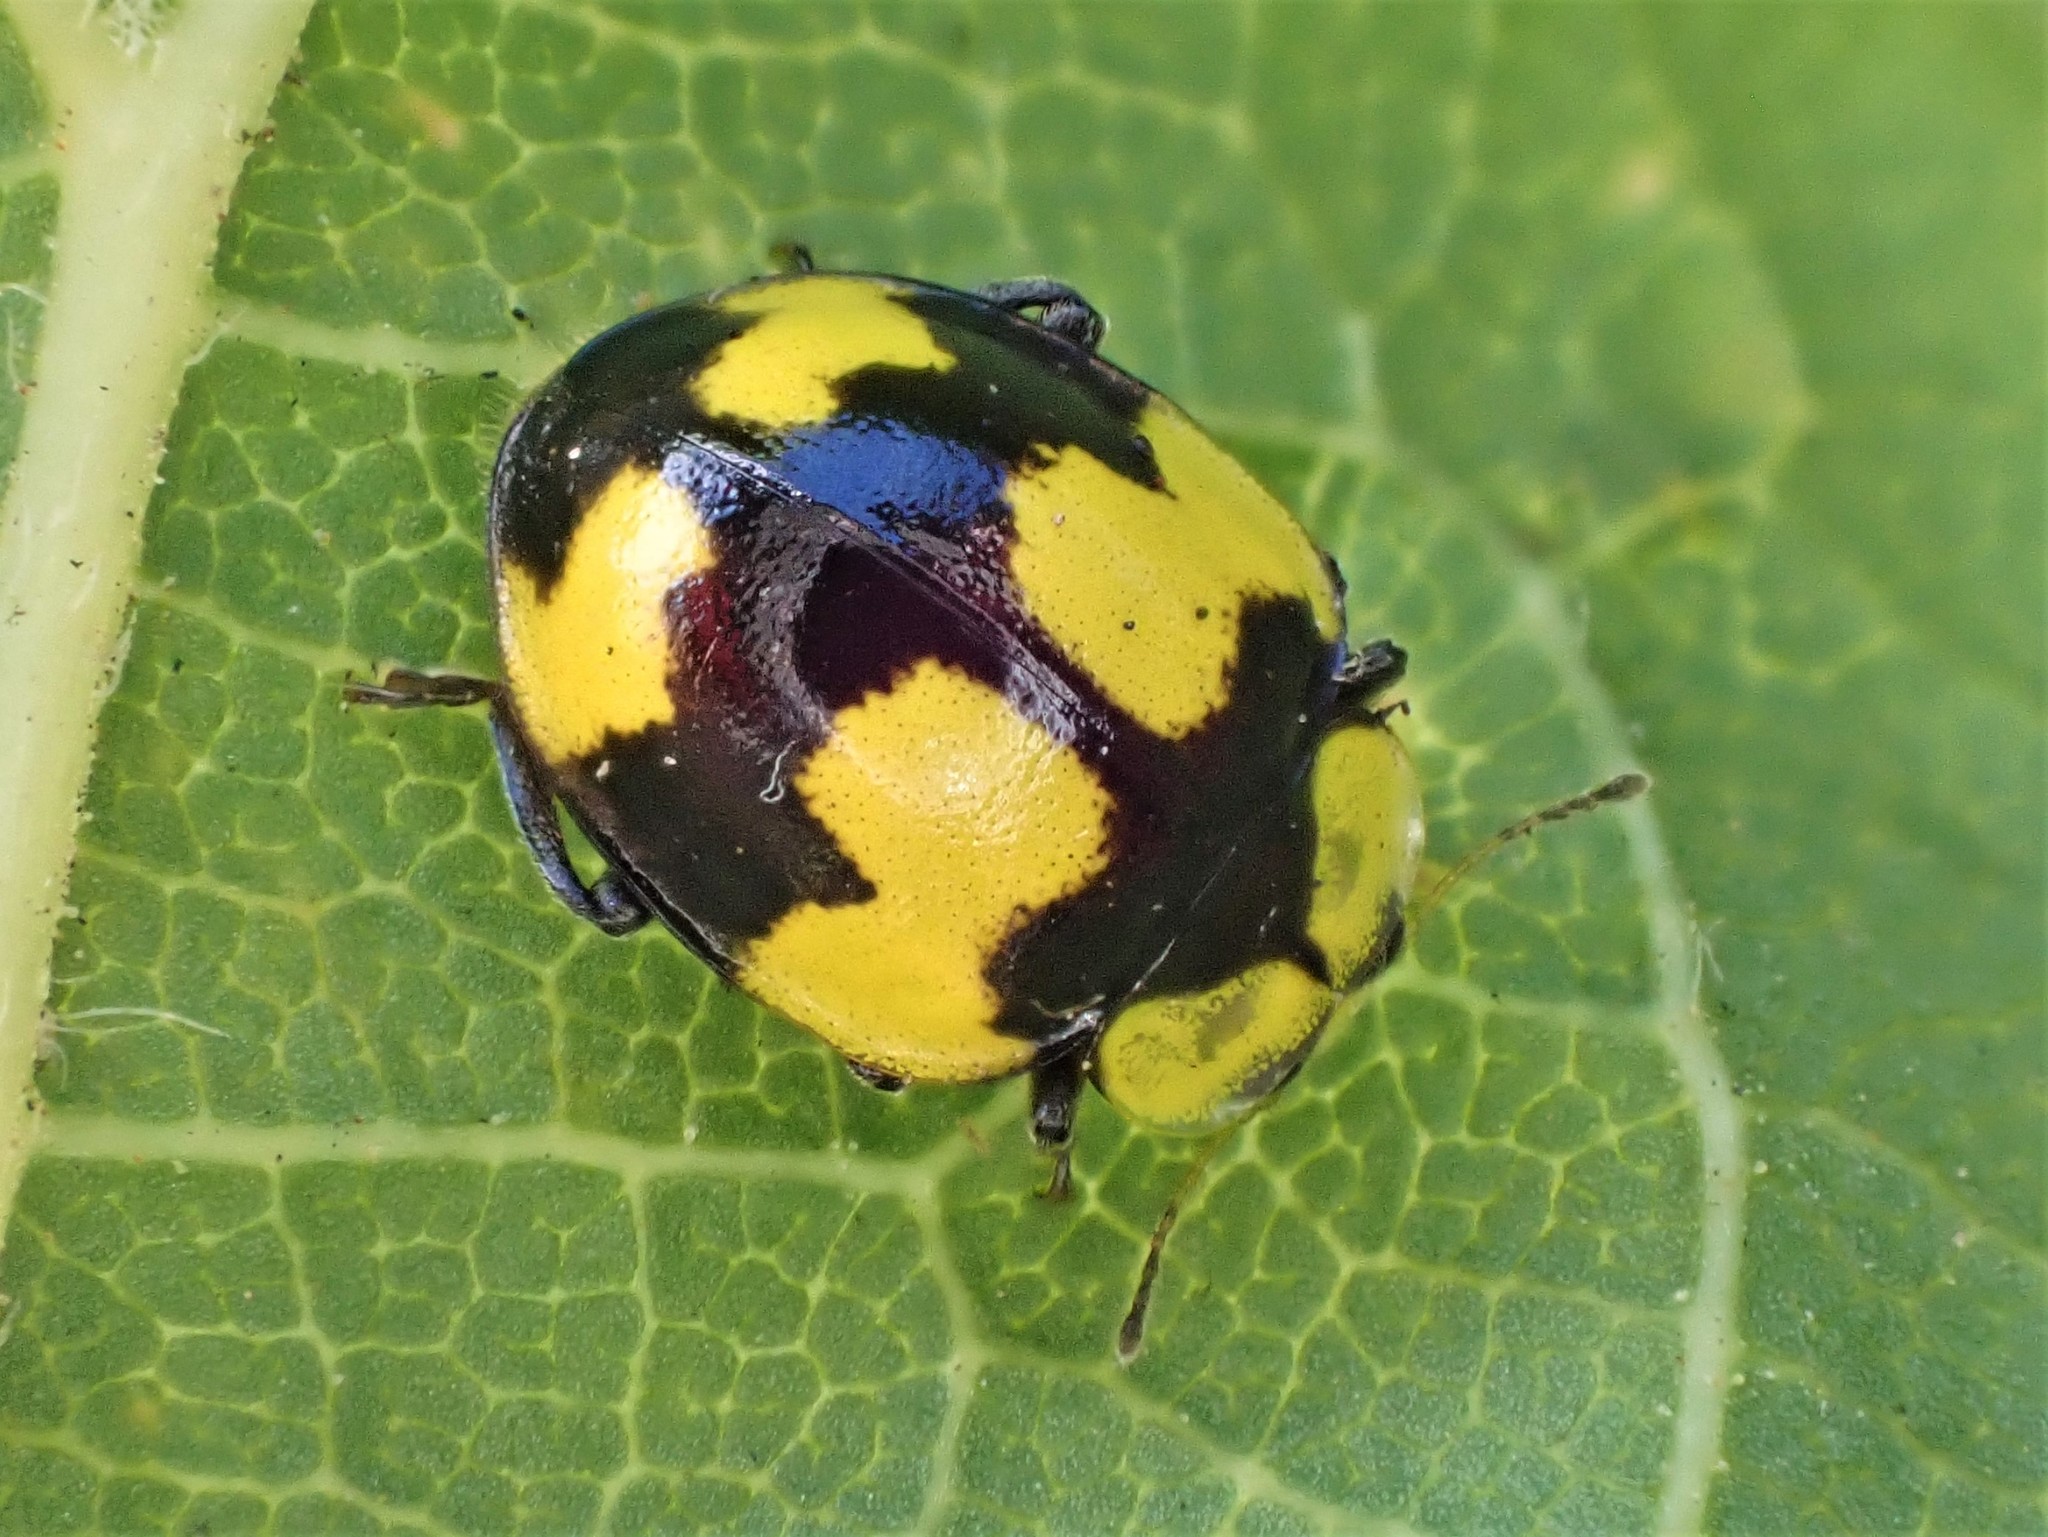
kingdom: Animalia
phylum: Arthropoda
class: Insecta
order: Coleoptera
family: Coccinellidae
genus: Illeis
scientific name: Illeis galbula
